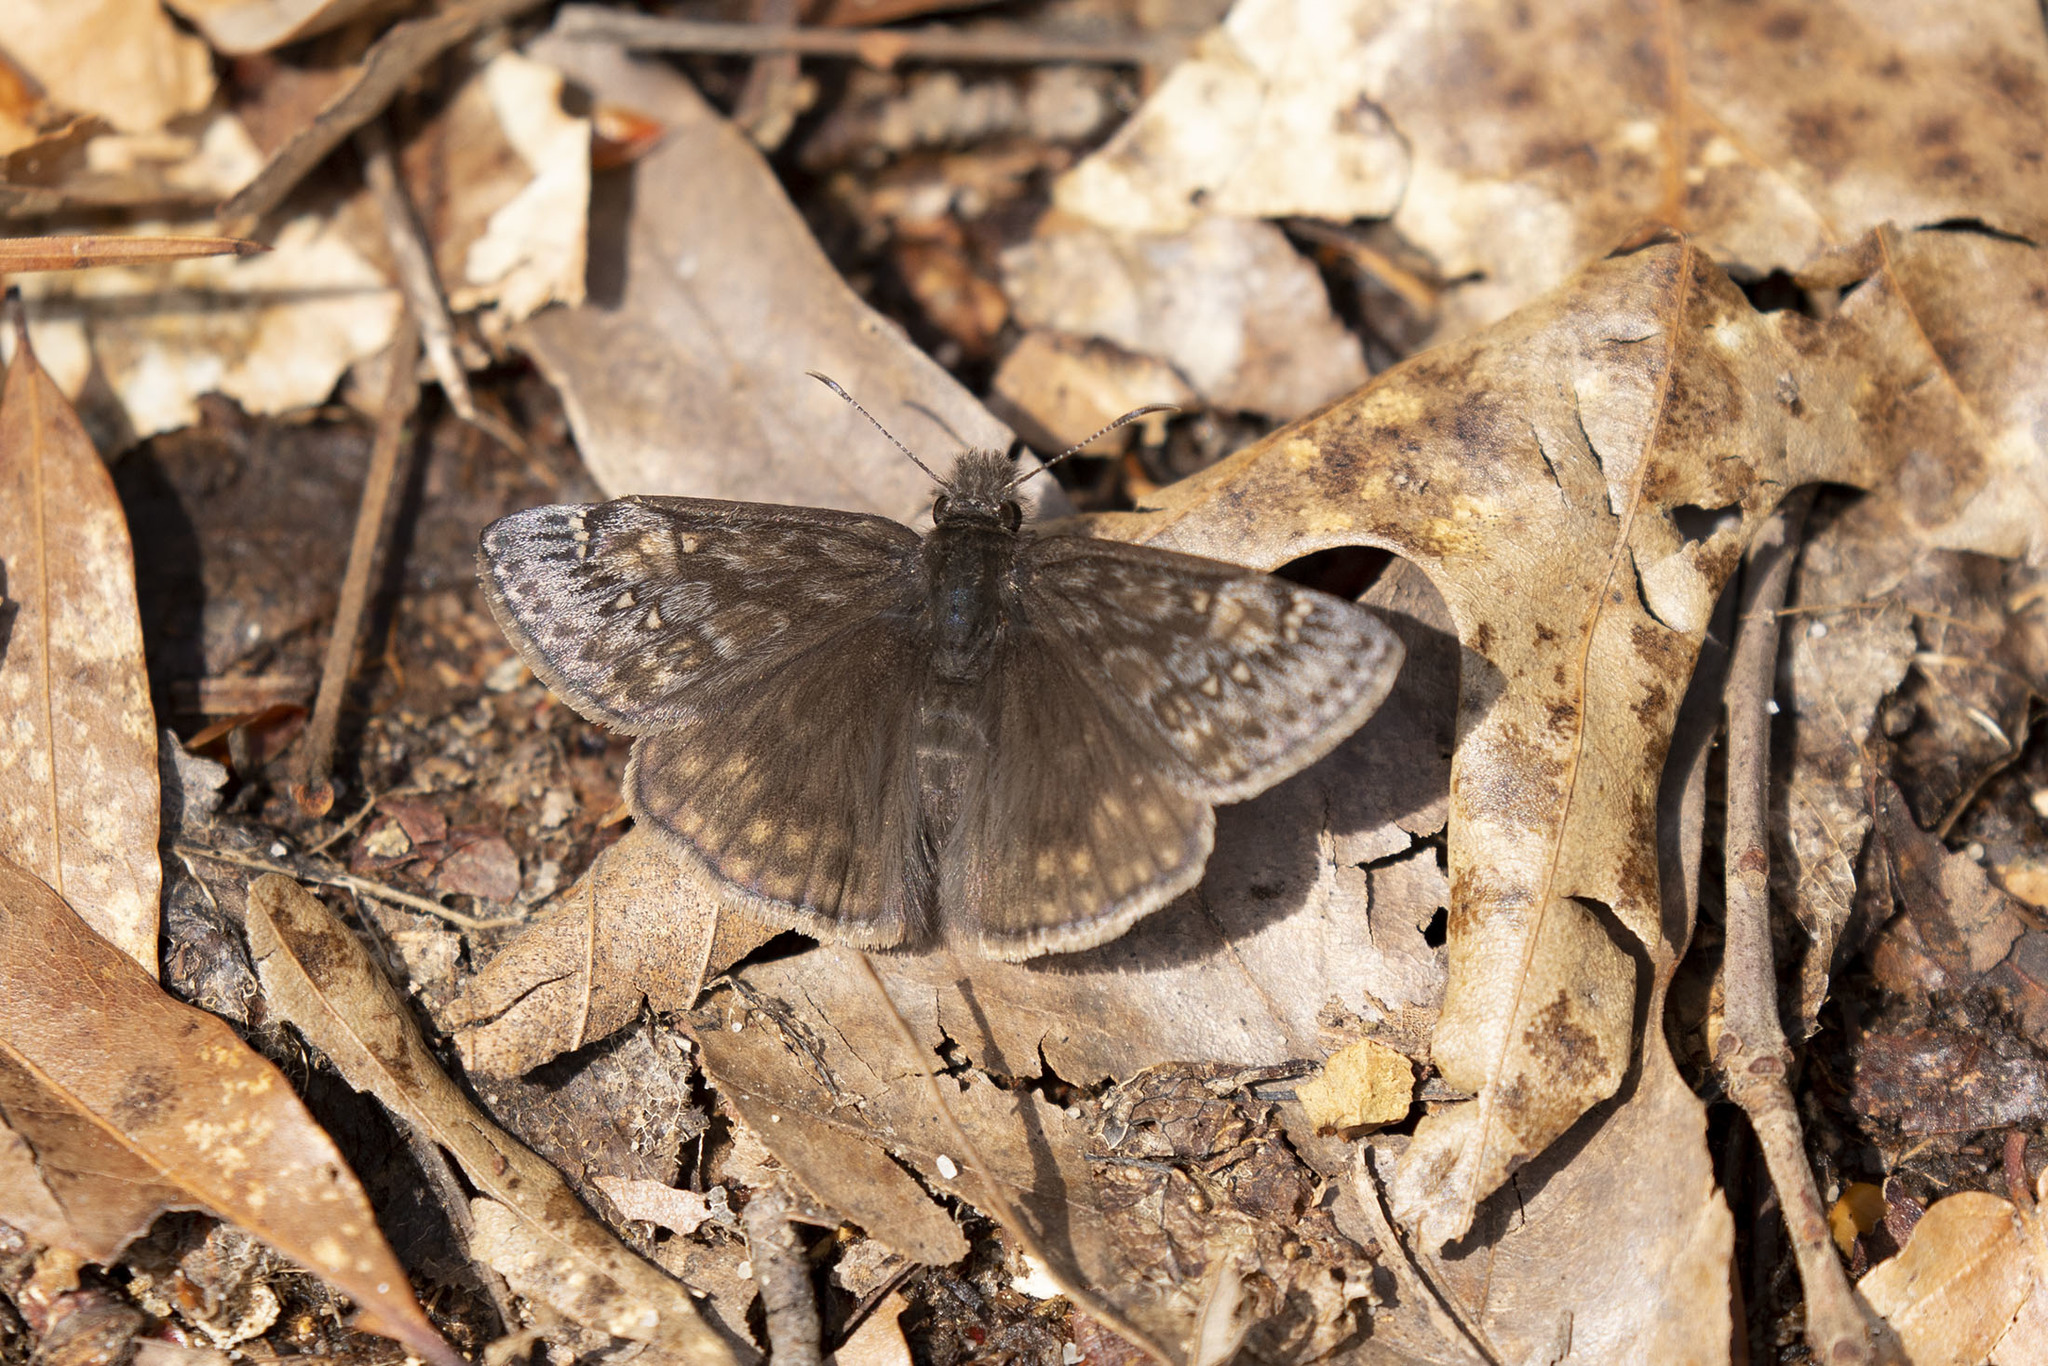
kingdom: Animalia
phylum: Arthropoda
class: Insecta
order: Lepidoptera
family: Hesperiidae
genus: Erynnis
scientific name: Erynnis juvenalis
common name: Juvenal's duskywing
